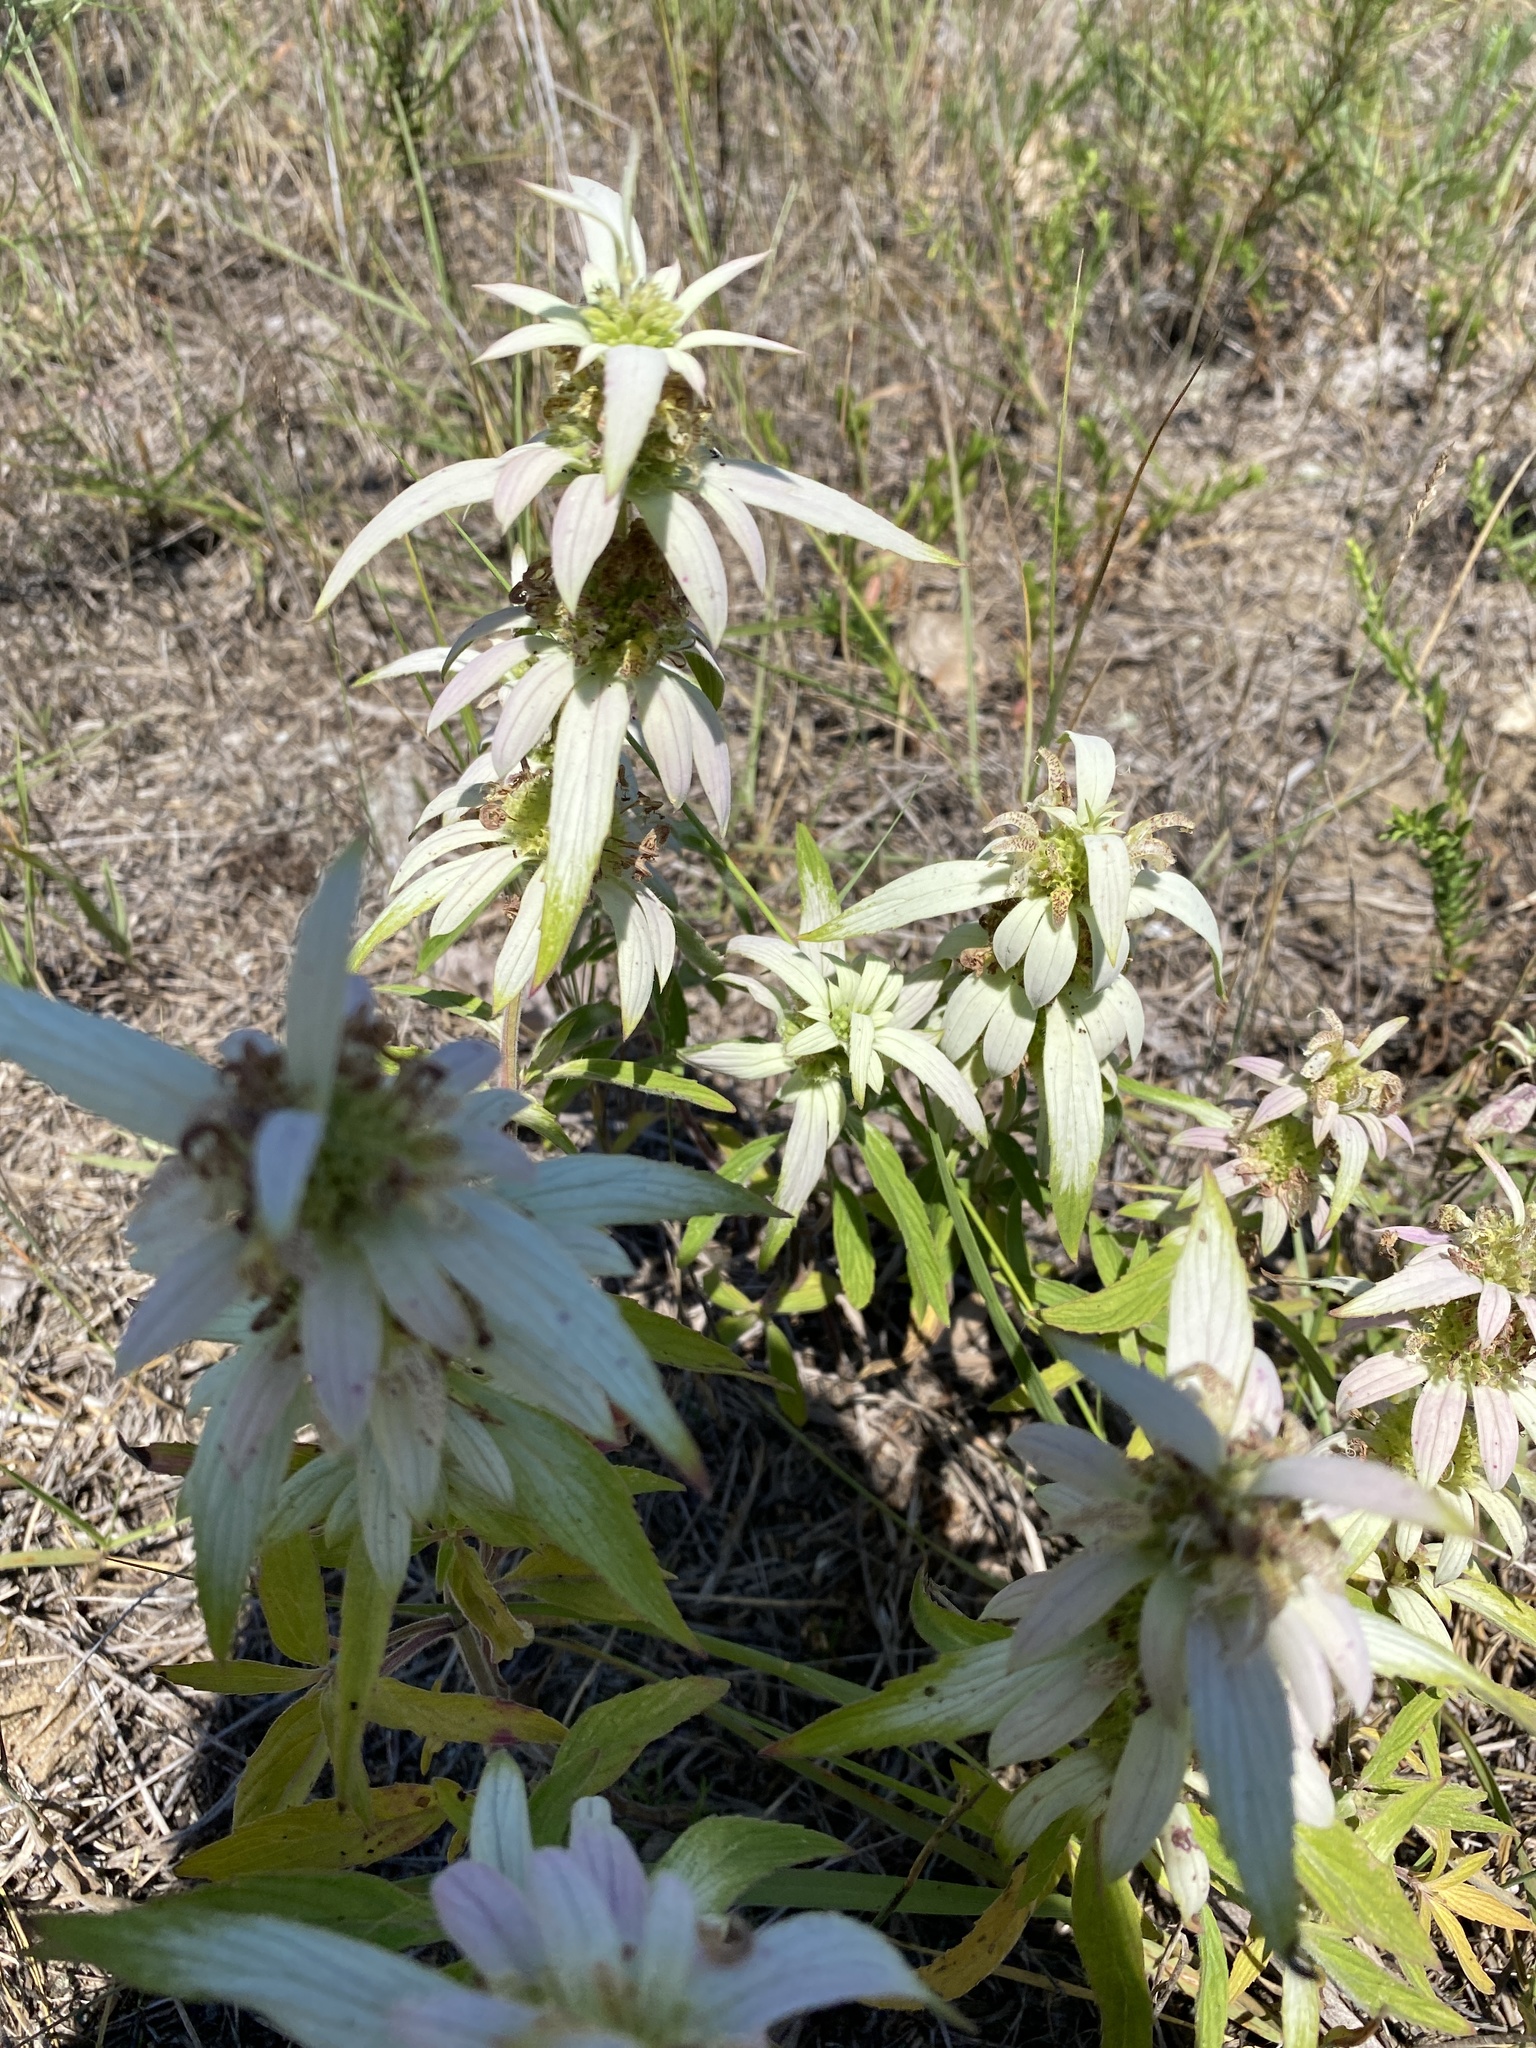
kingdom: Plantae
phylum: Tracheophyta
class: Magnoliopsida
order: Lamiales
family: Lamiaceae
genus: Monarda
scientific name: Monarda punctata
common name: Dotted monarda
